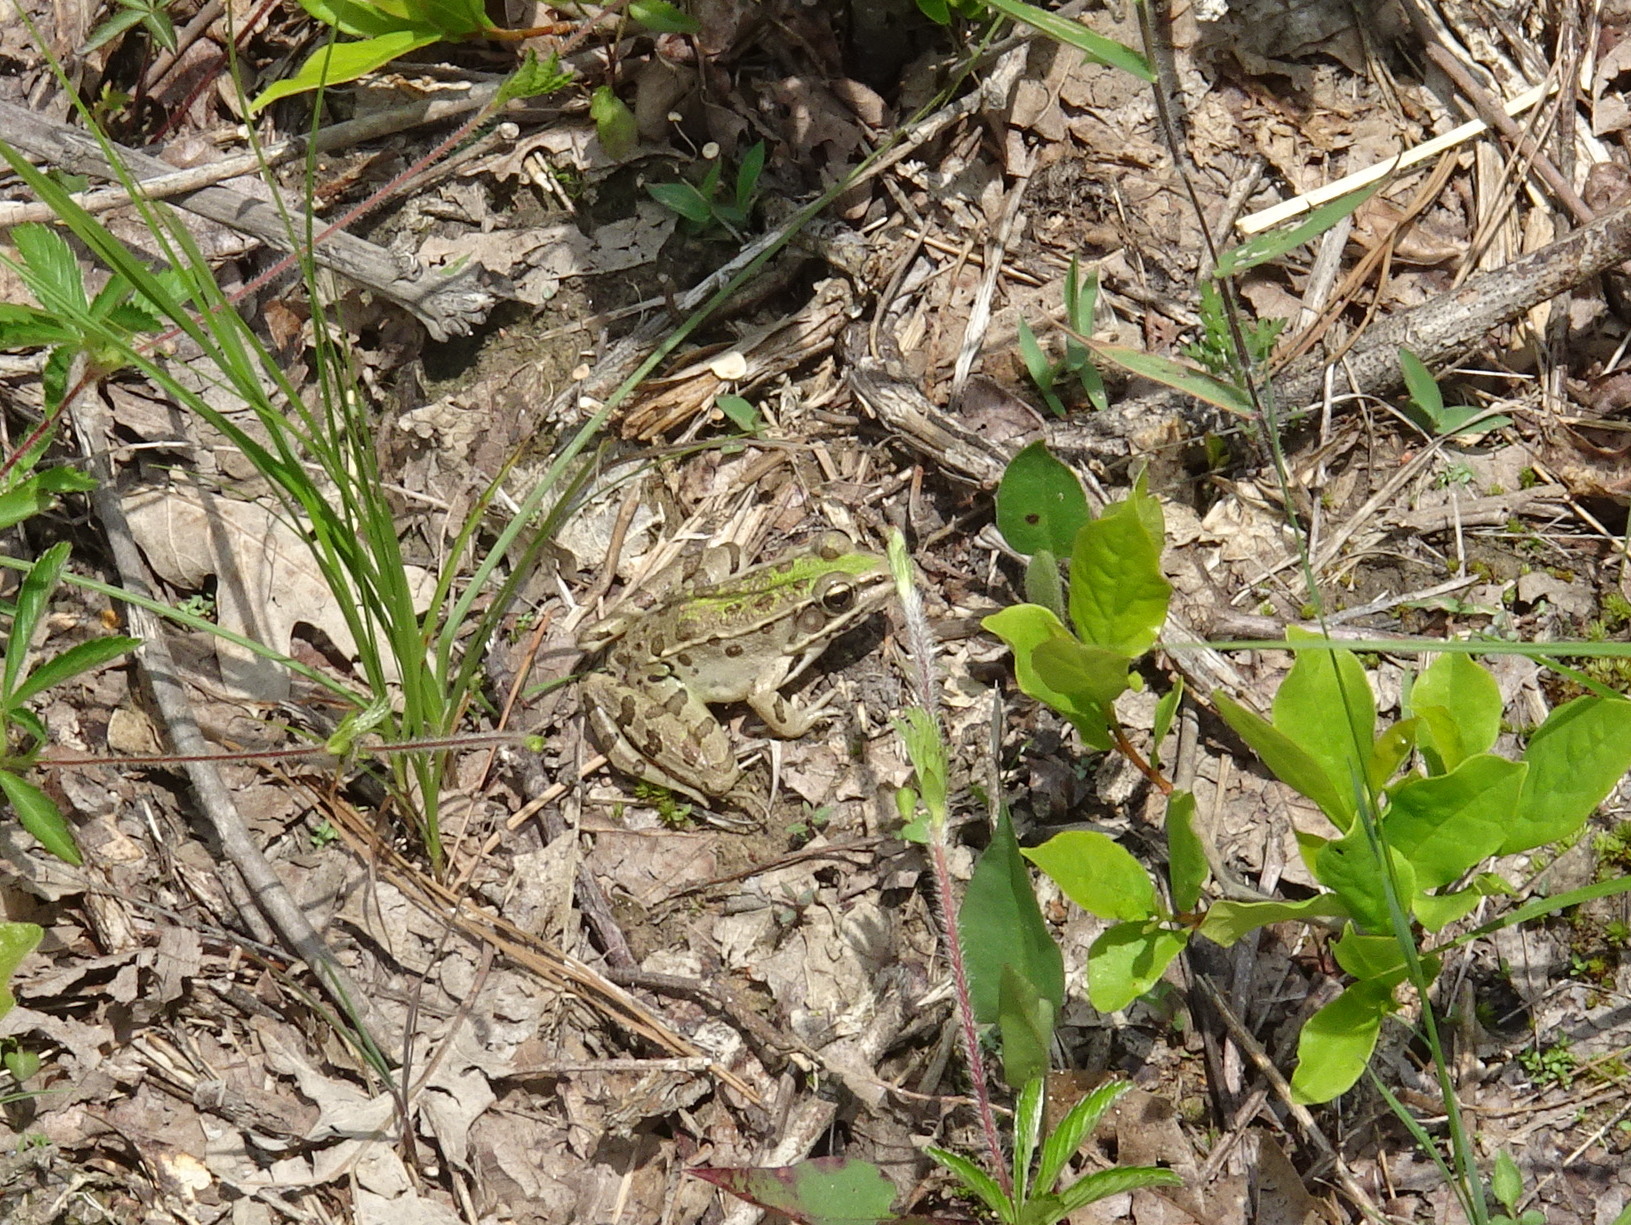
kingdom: Animalia
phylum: Chordata
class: Amphibia
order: Anura
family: Ranidae
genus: Lithobates
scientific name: Lithobates sphenocephalus
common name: Southern leopard frog
